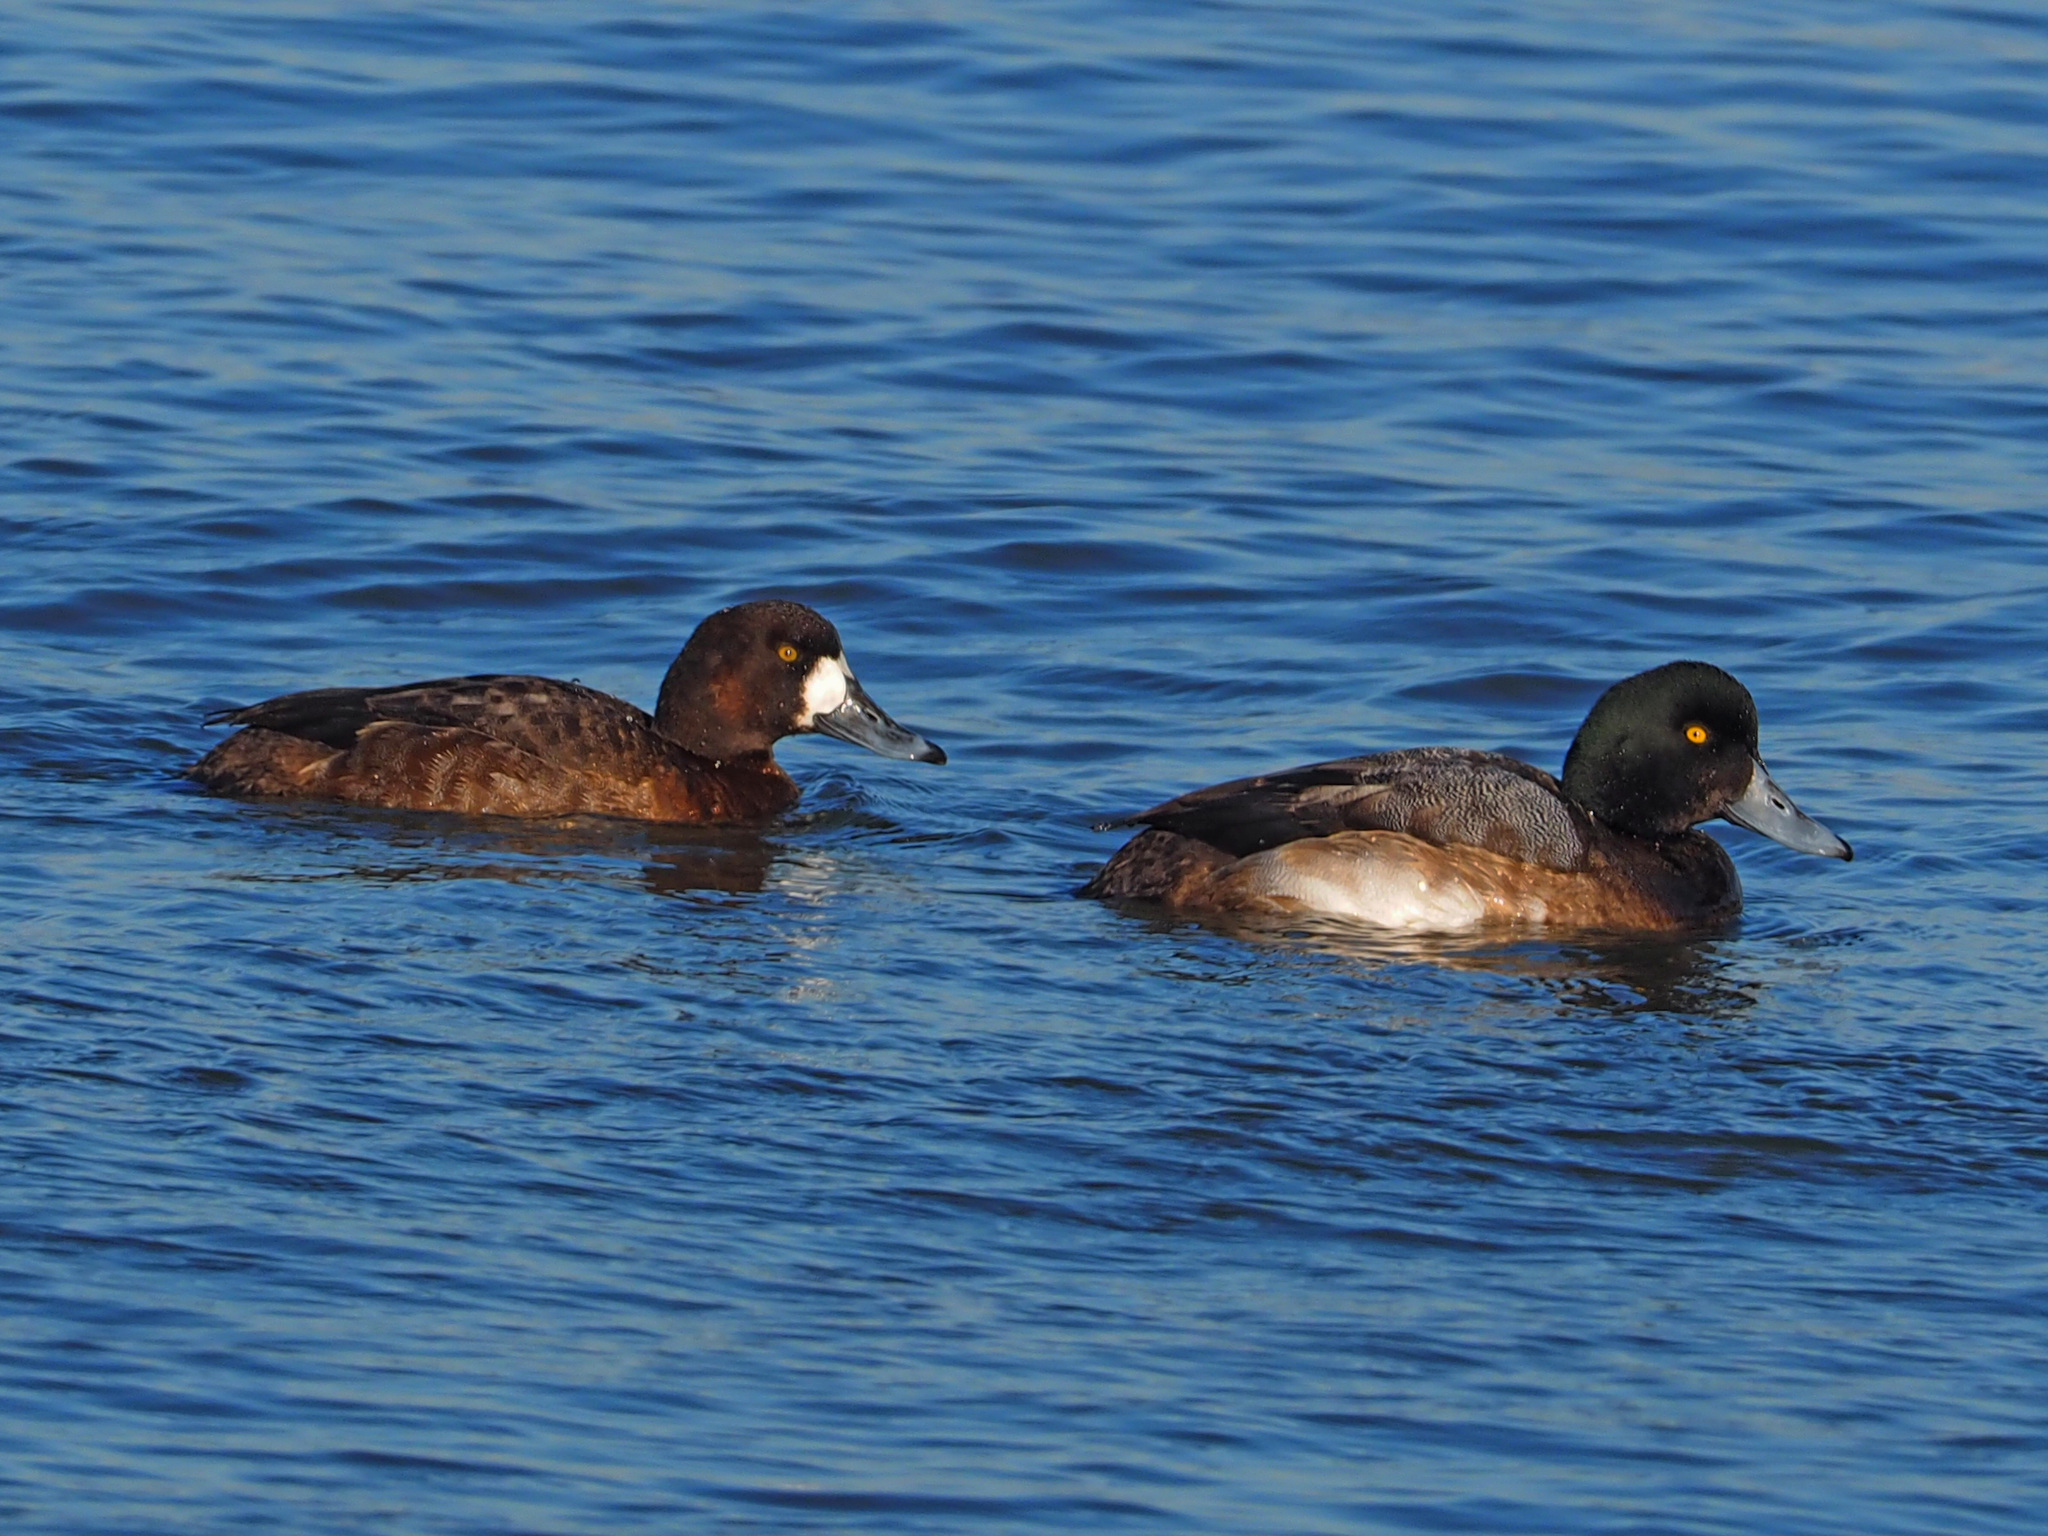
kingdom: Animalia
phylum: Chordata
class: Aves
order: Anseriformes
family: Anatidae
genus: Aythya
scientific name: Aythya marila
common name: Greater scaup
